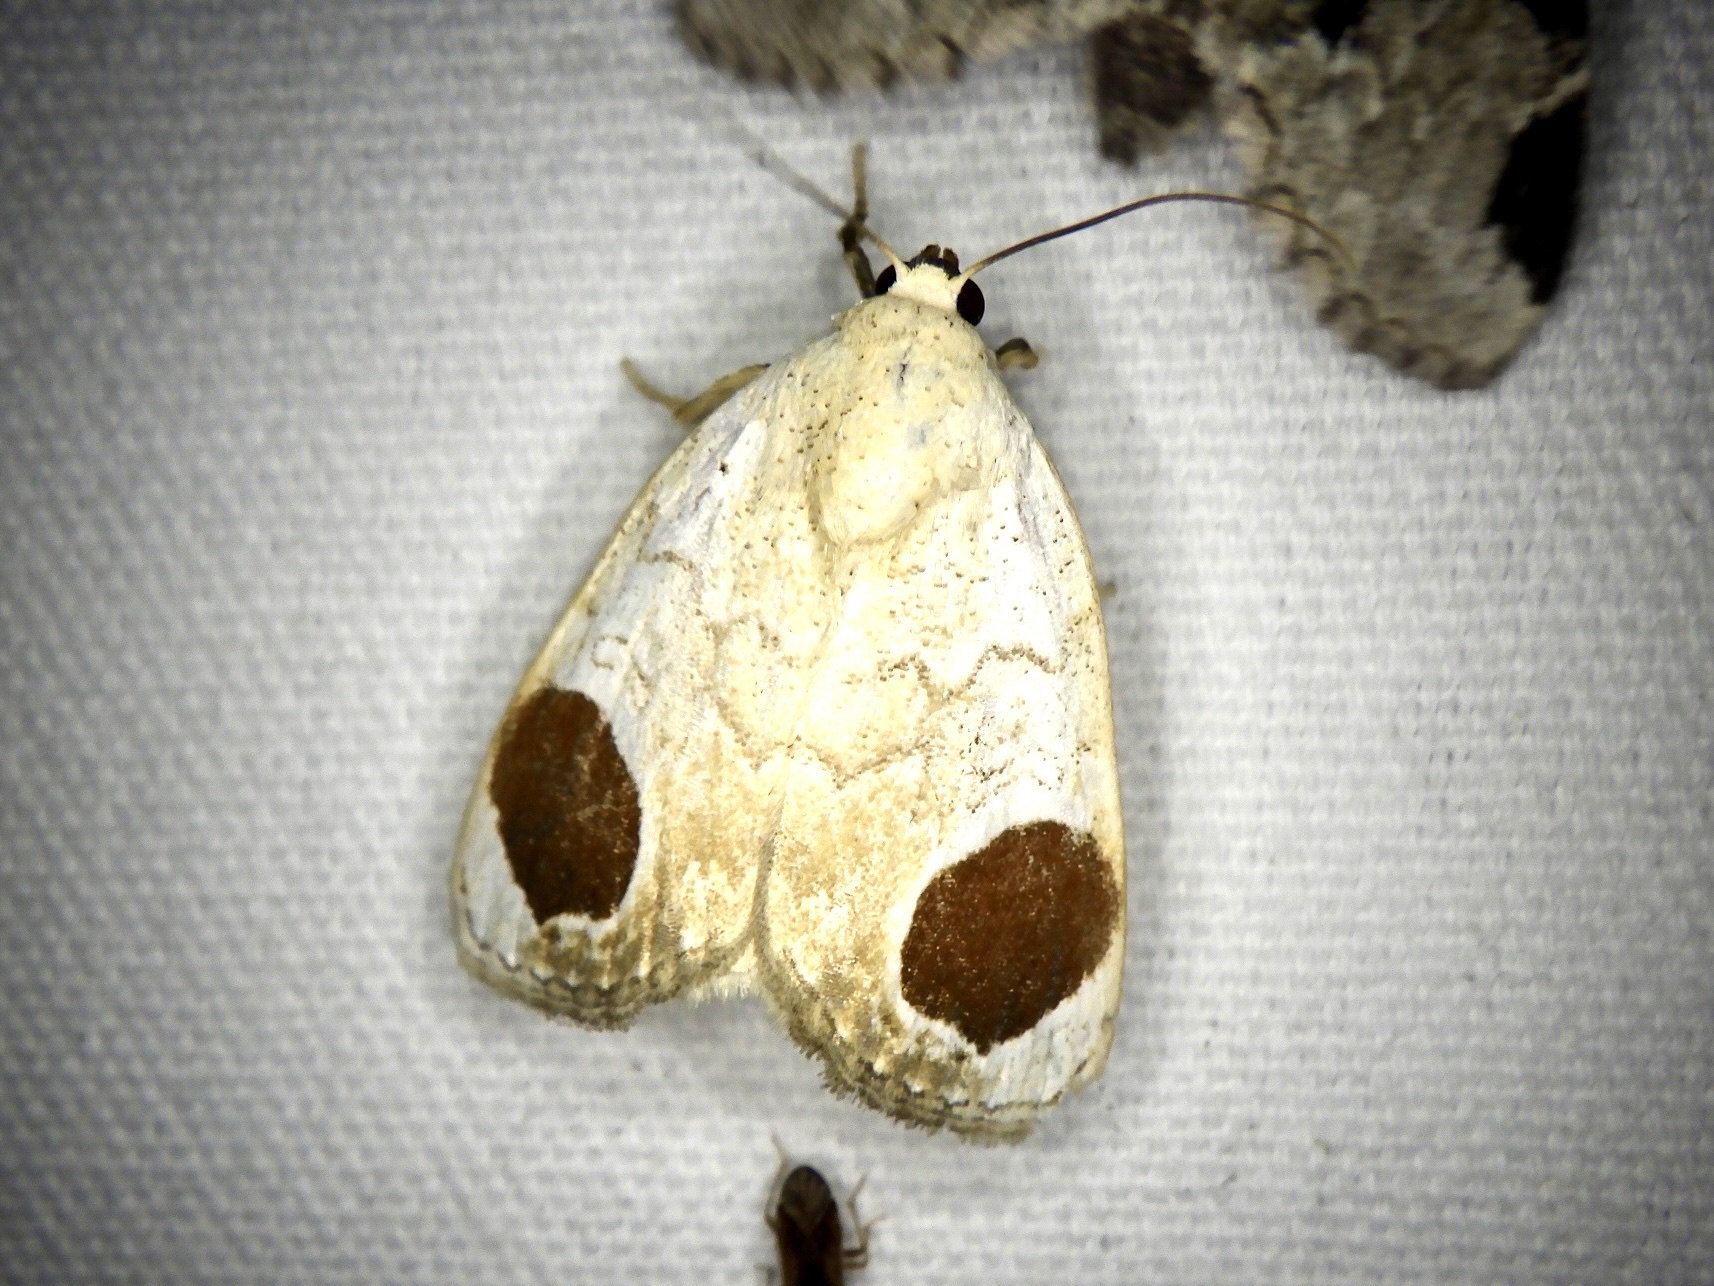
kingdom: Animalia
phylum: Arthropoda
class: Insecta
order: Lepidoptera
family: Noctuidae
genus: Sphragifera
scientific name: Sphragifera sigillata
